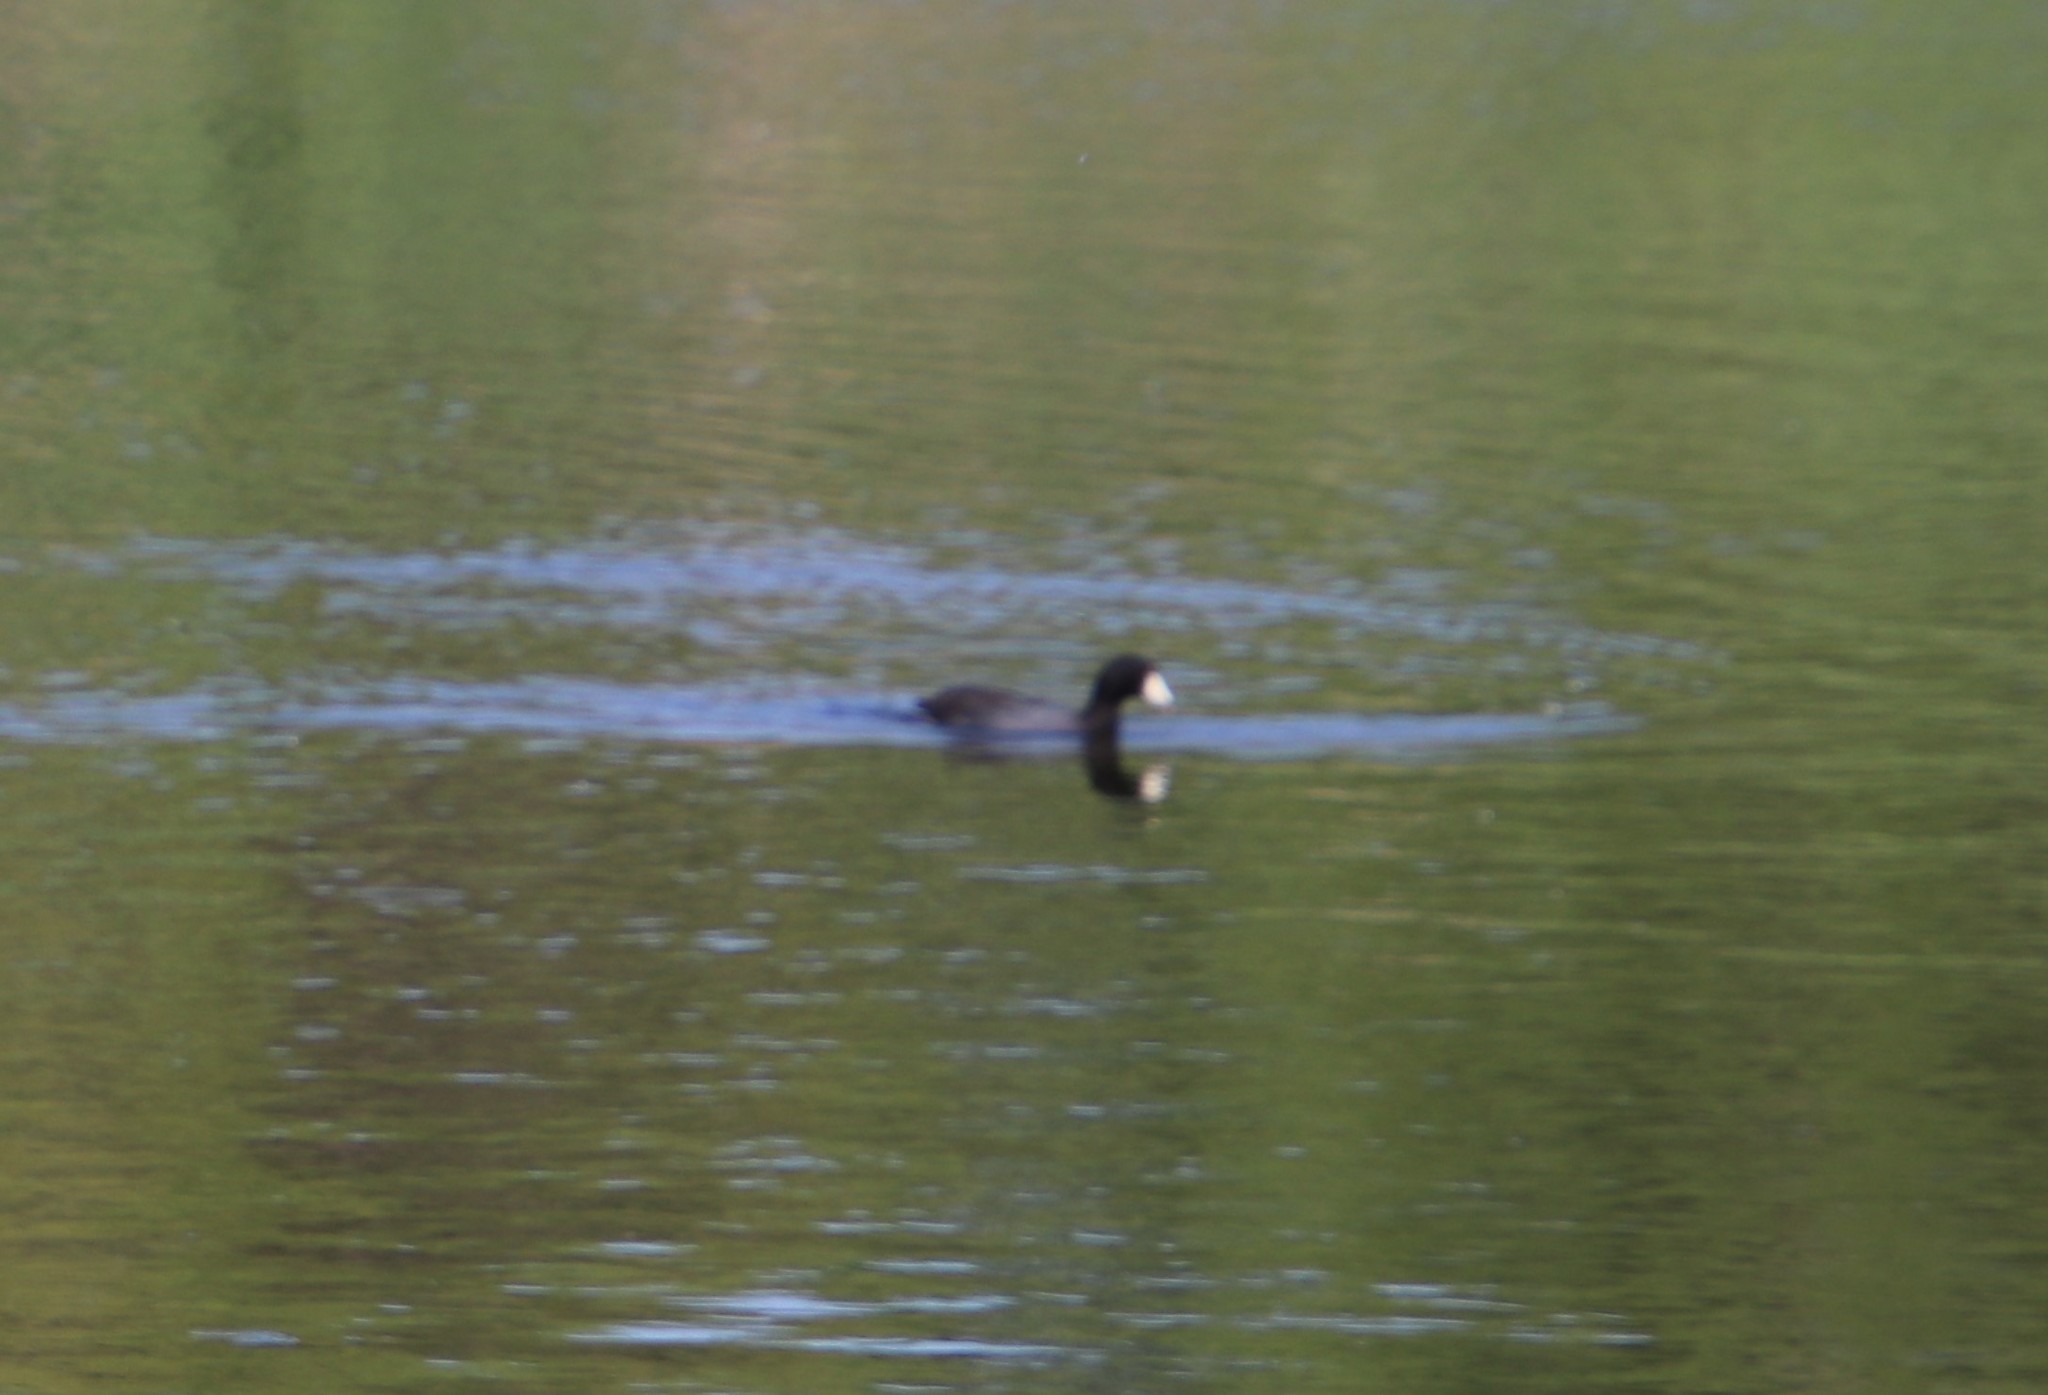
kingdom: Animalia
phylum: Chordata
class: Aves
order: Gruiformes
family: Rallidae
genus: Fulica
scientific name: Fulica americana
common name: American coot
